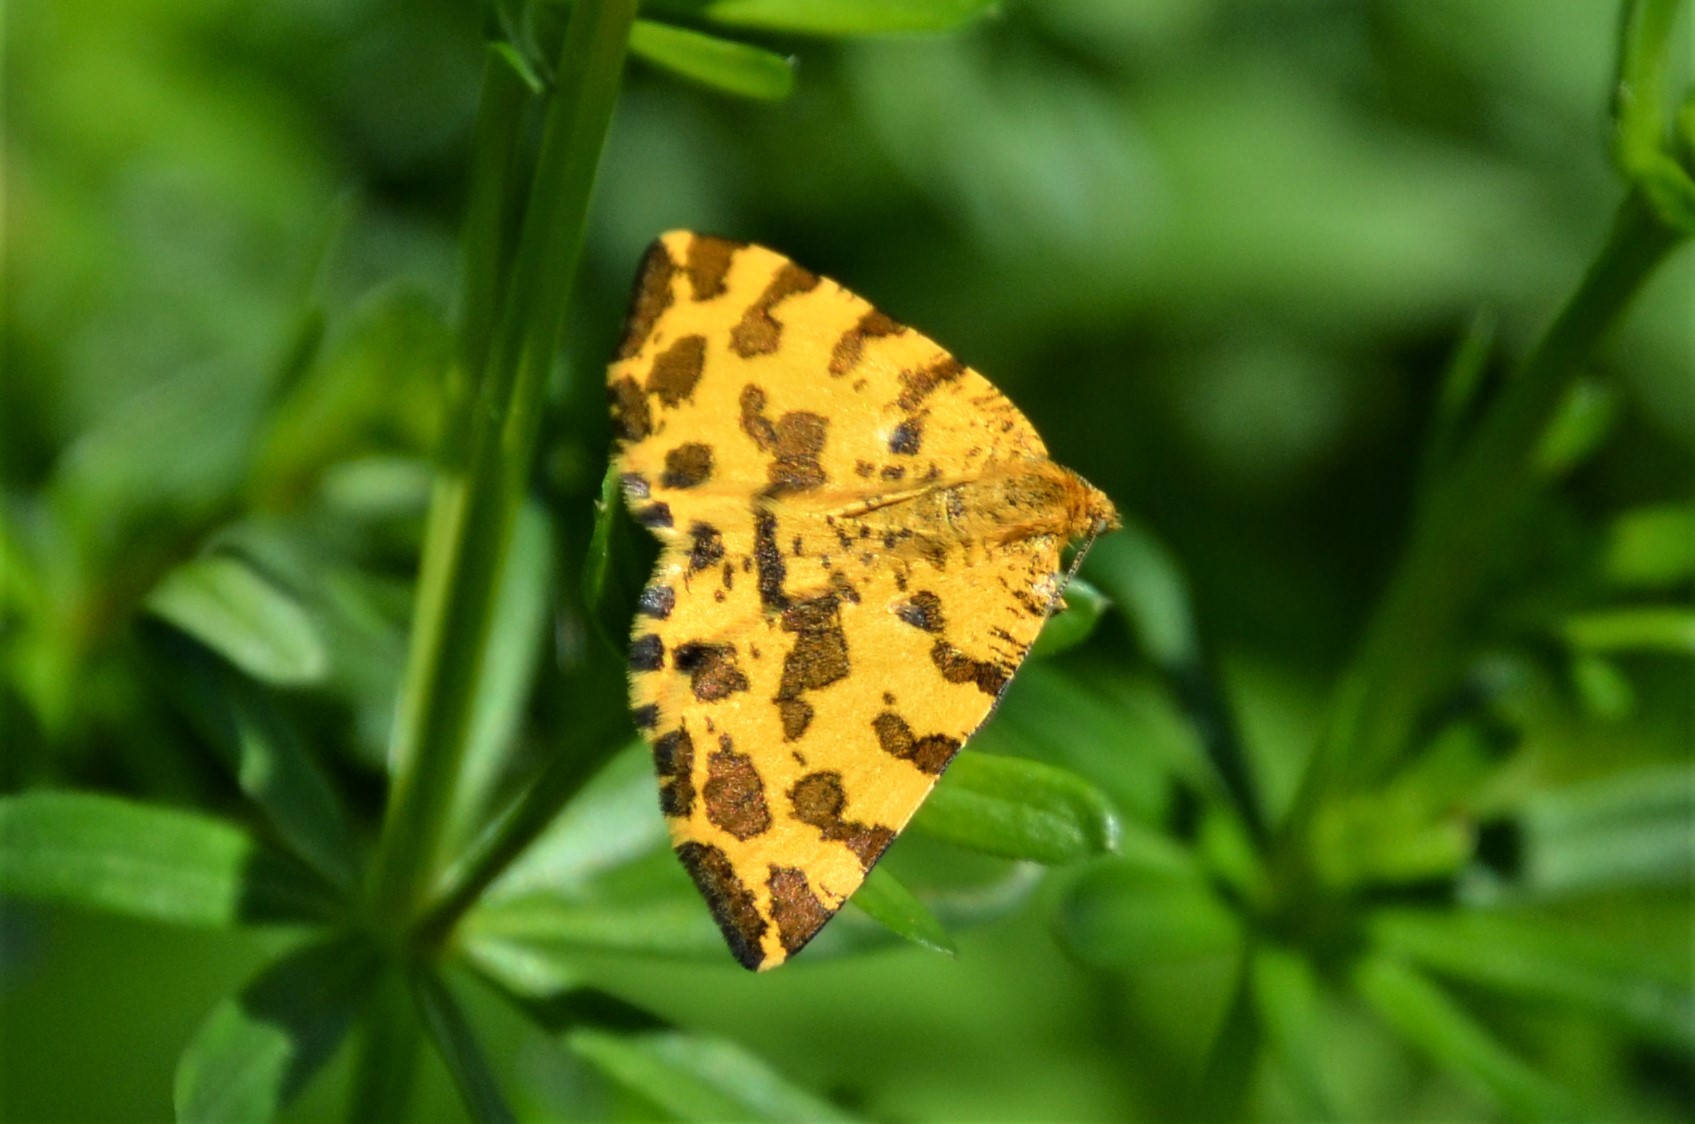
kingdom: Animalia
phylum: Arthropoda
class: Insecta
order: Lepidoptera
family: Geometridae
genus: Pseudopanthera
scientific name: Pseudopanthera macularia
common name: Speckled yellow
